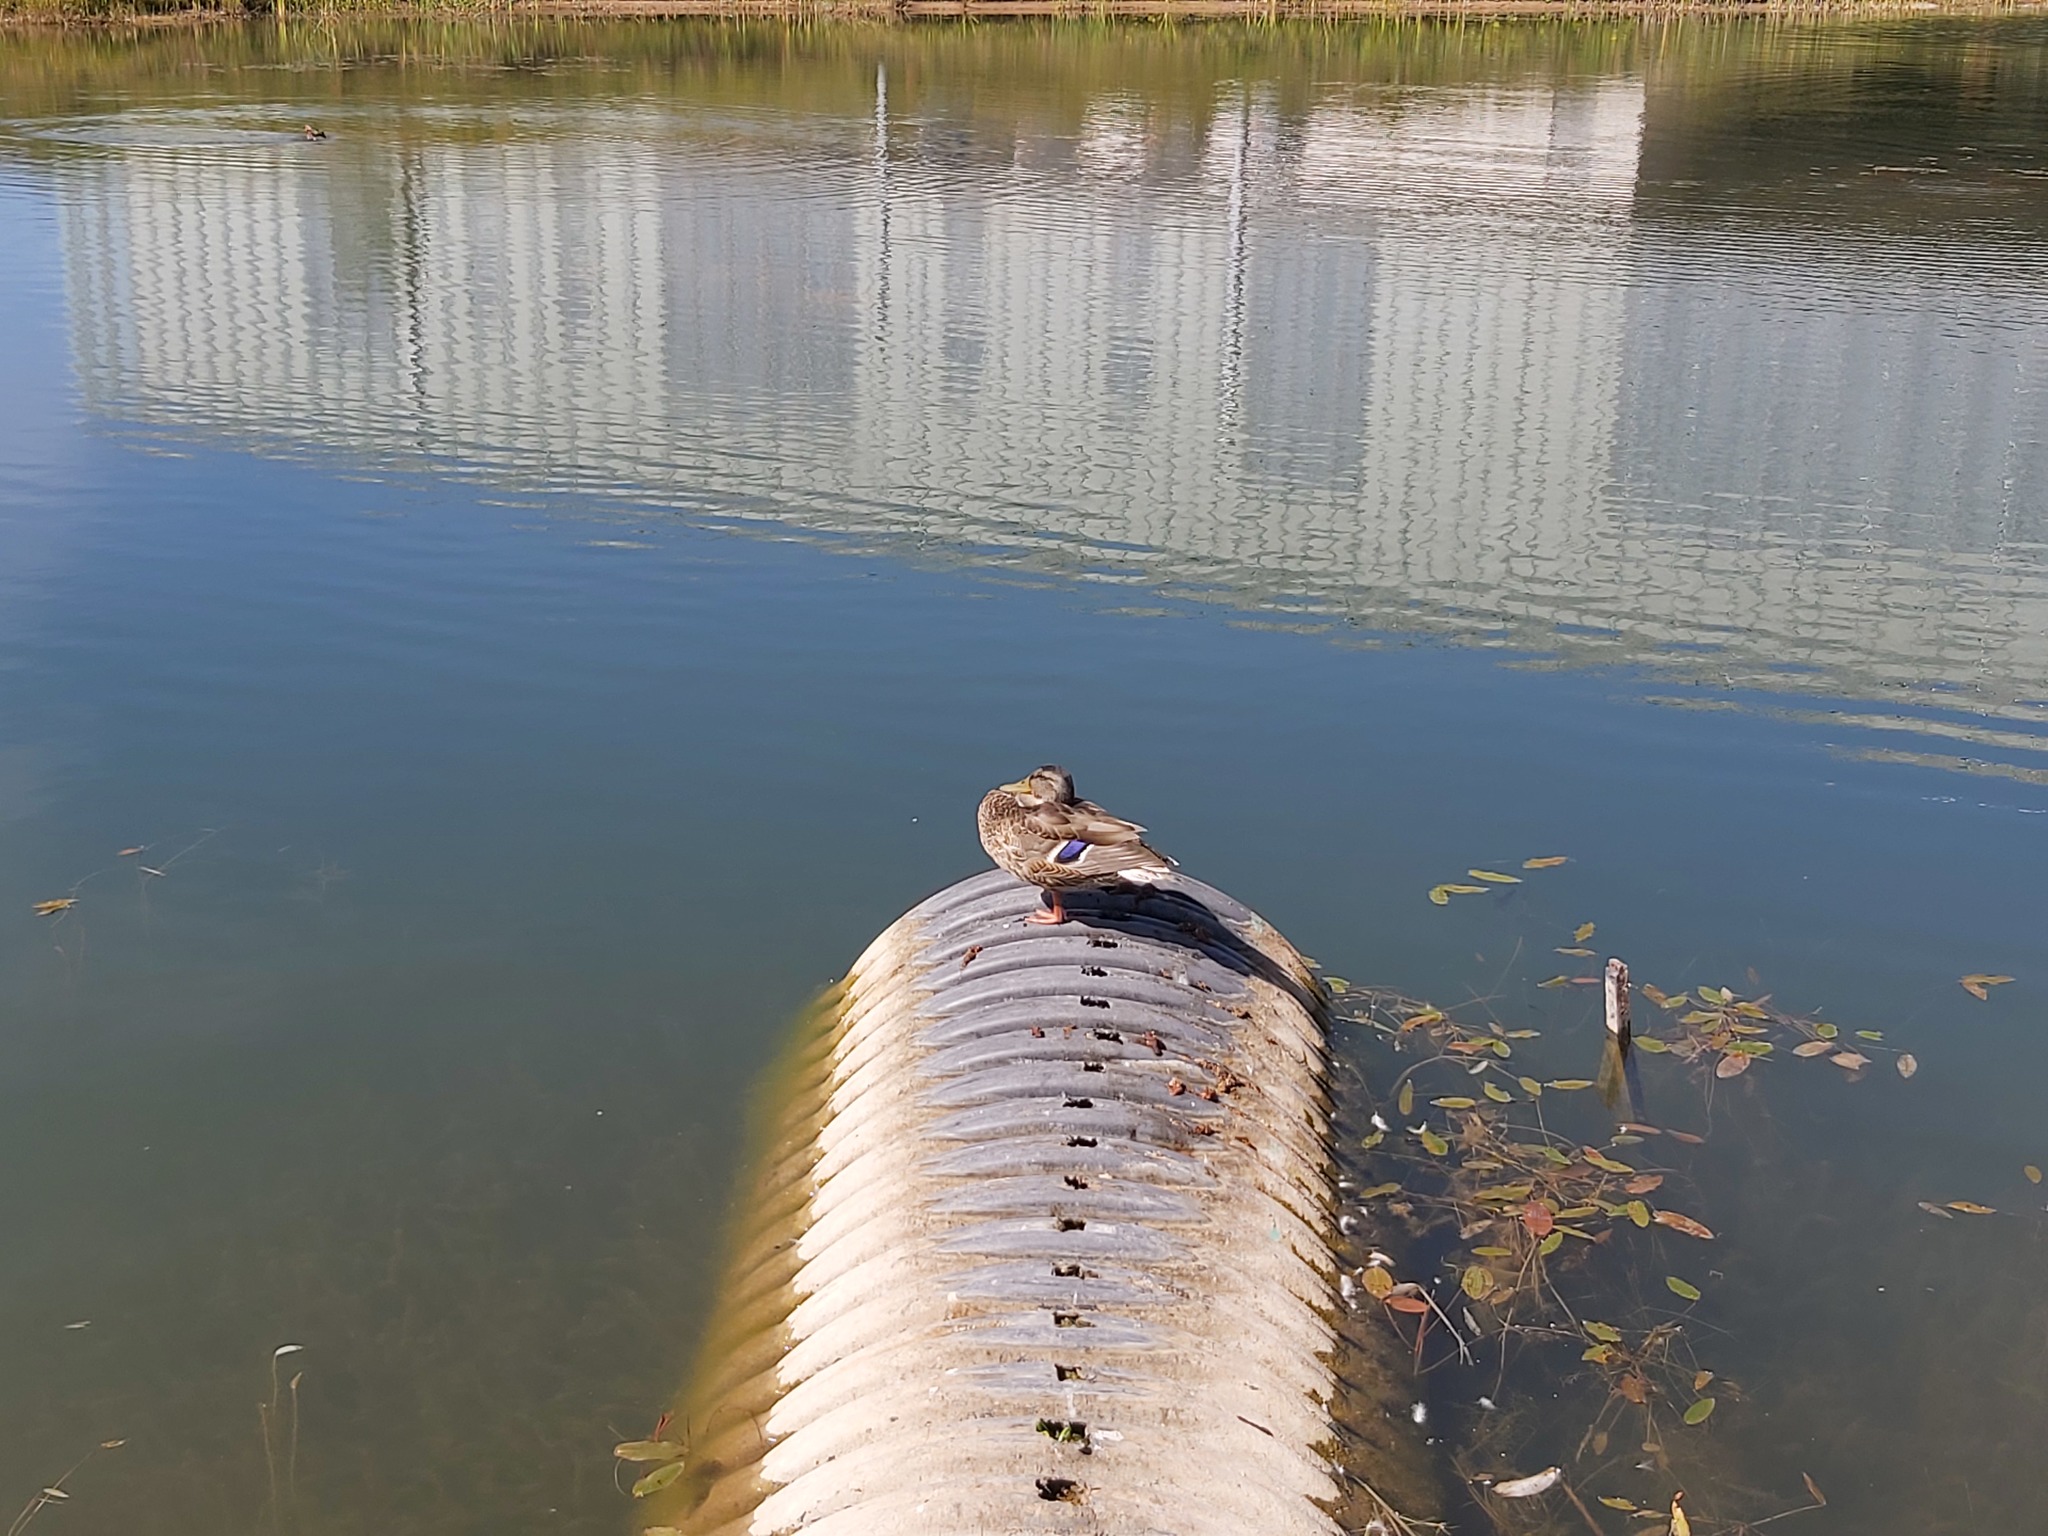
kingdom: Animalia
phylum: Chordata
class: Aves
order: Anseriformes
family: Anatidae
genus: Anas
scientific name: Anas platyrhynchos
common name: Mallard
